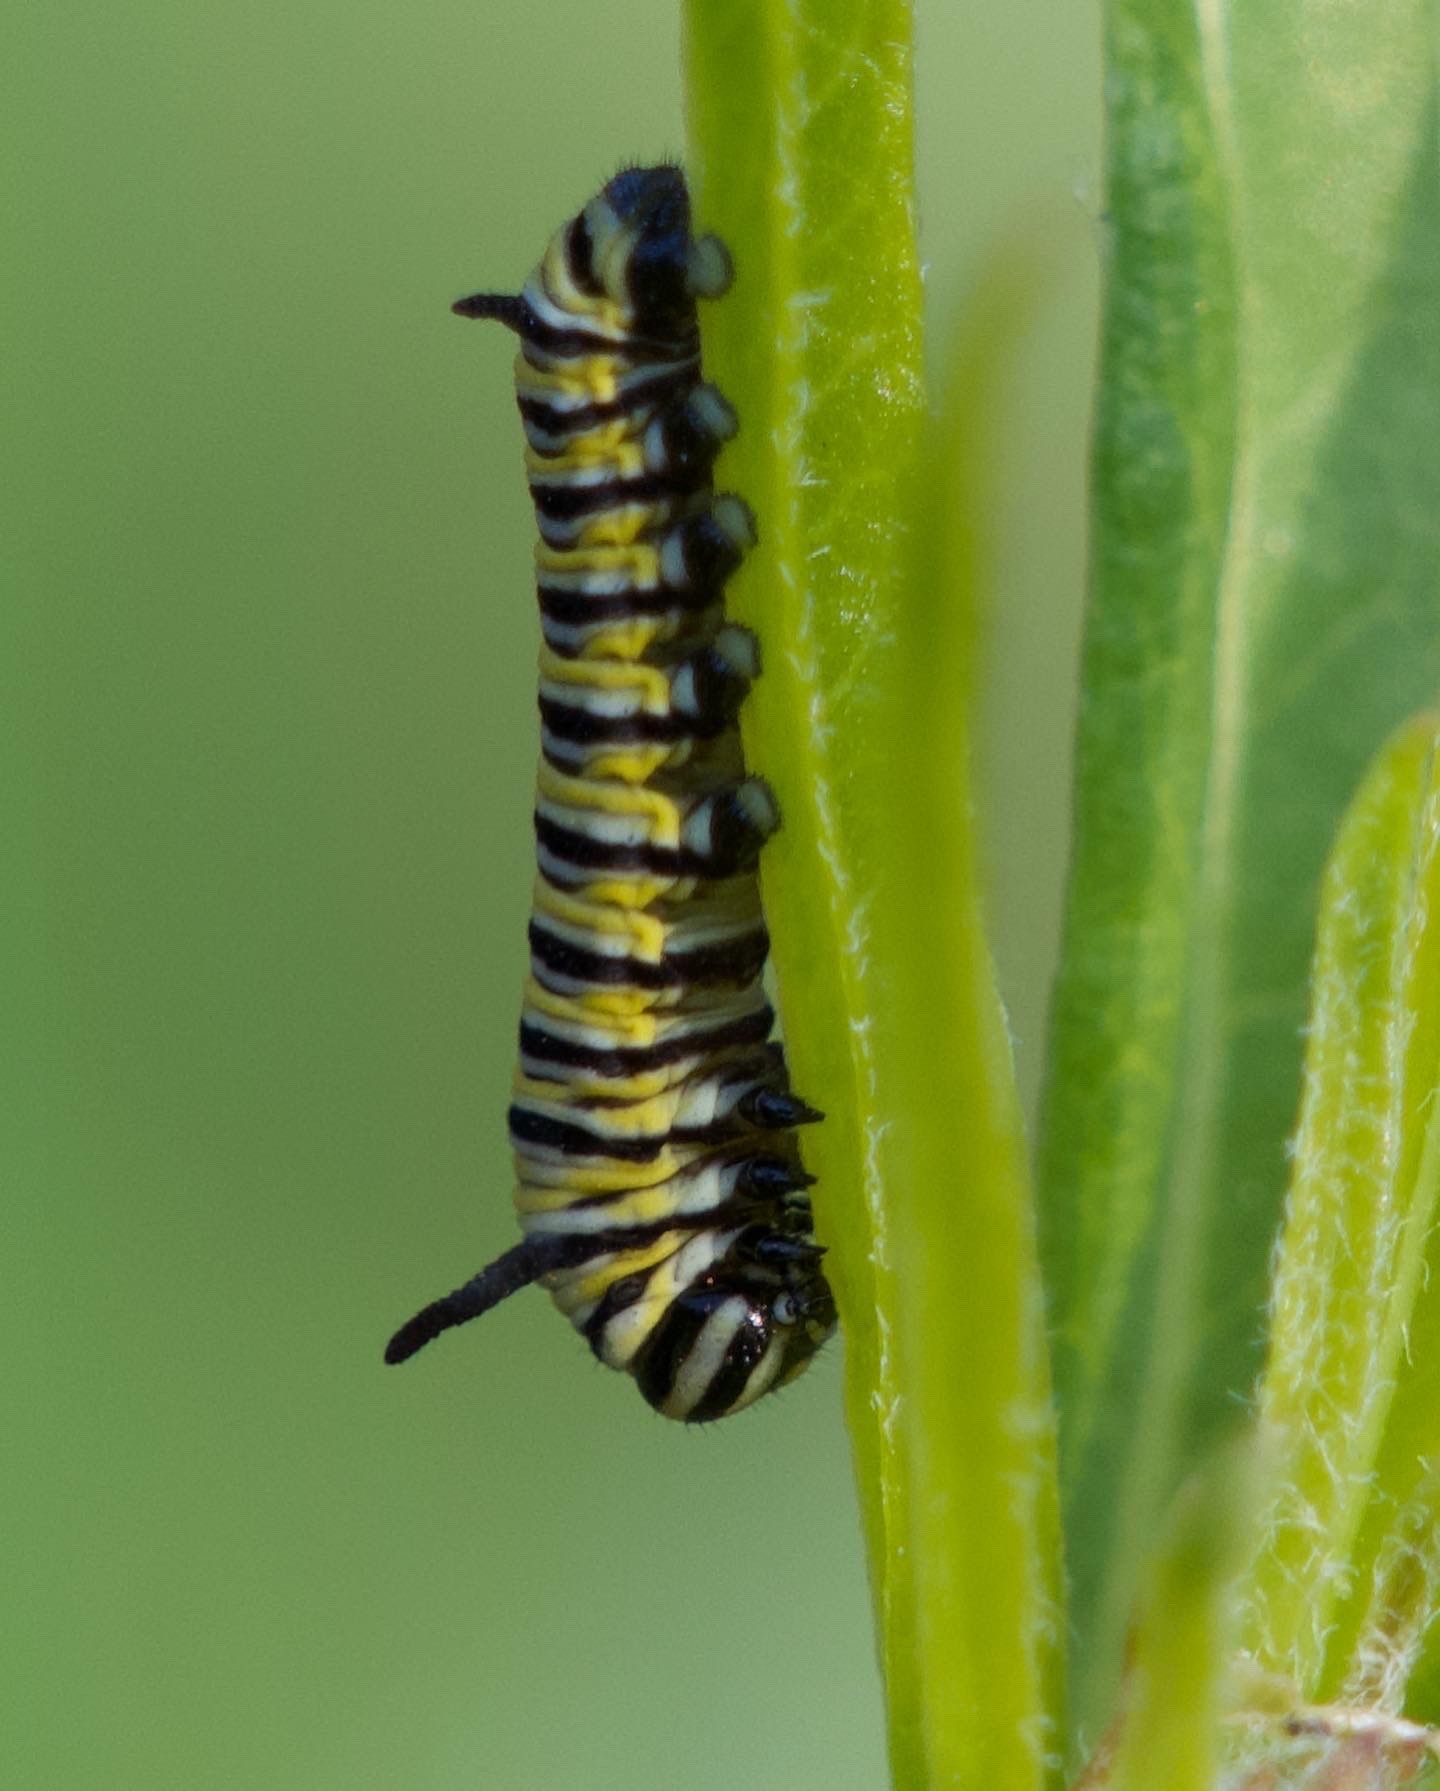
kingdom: Animalia
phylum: Arthropoda
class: Insecta
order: Lepidoptera
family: Nymphalidae
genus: Danaus
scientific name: Danaus plexippus
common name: Monarch
